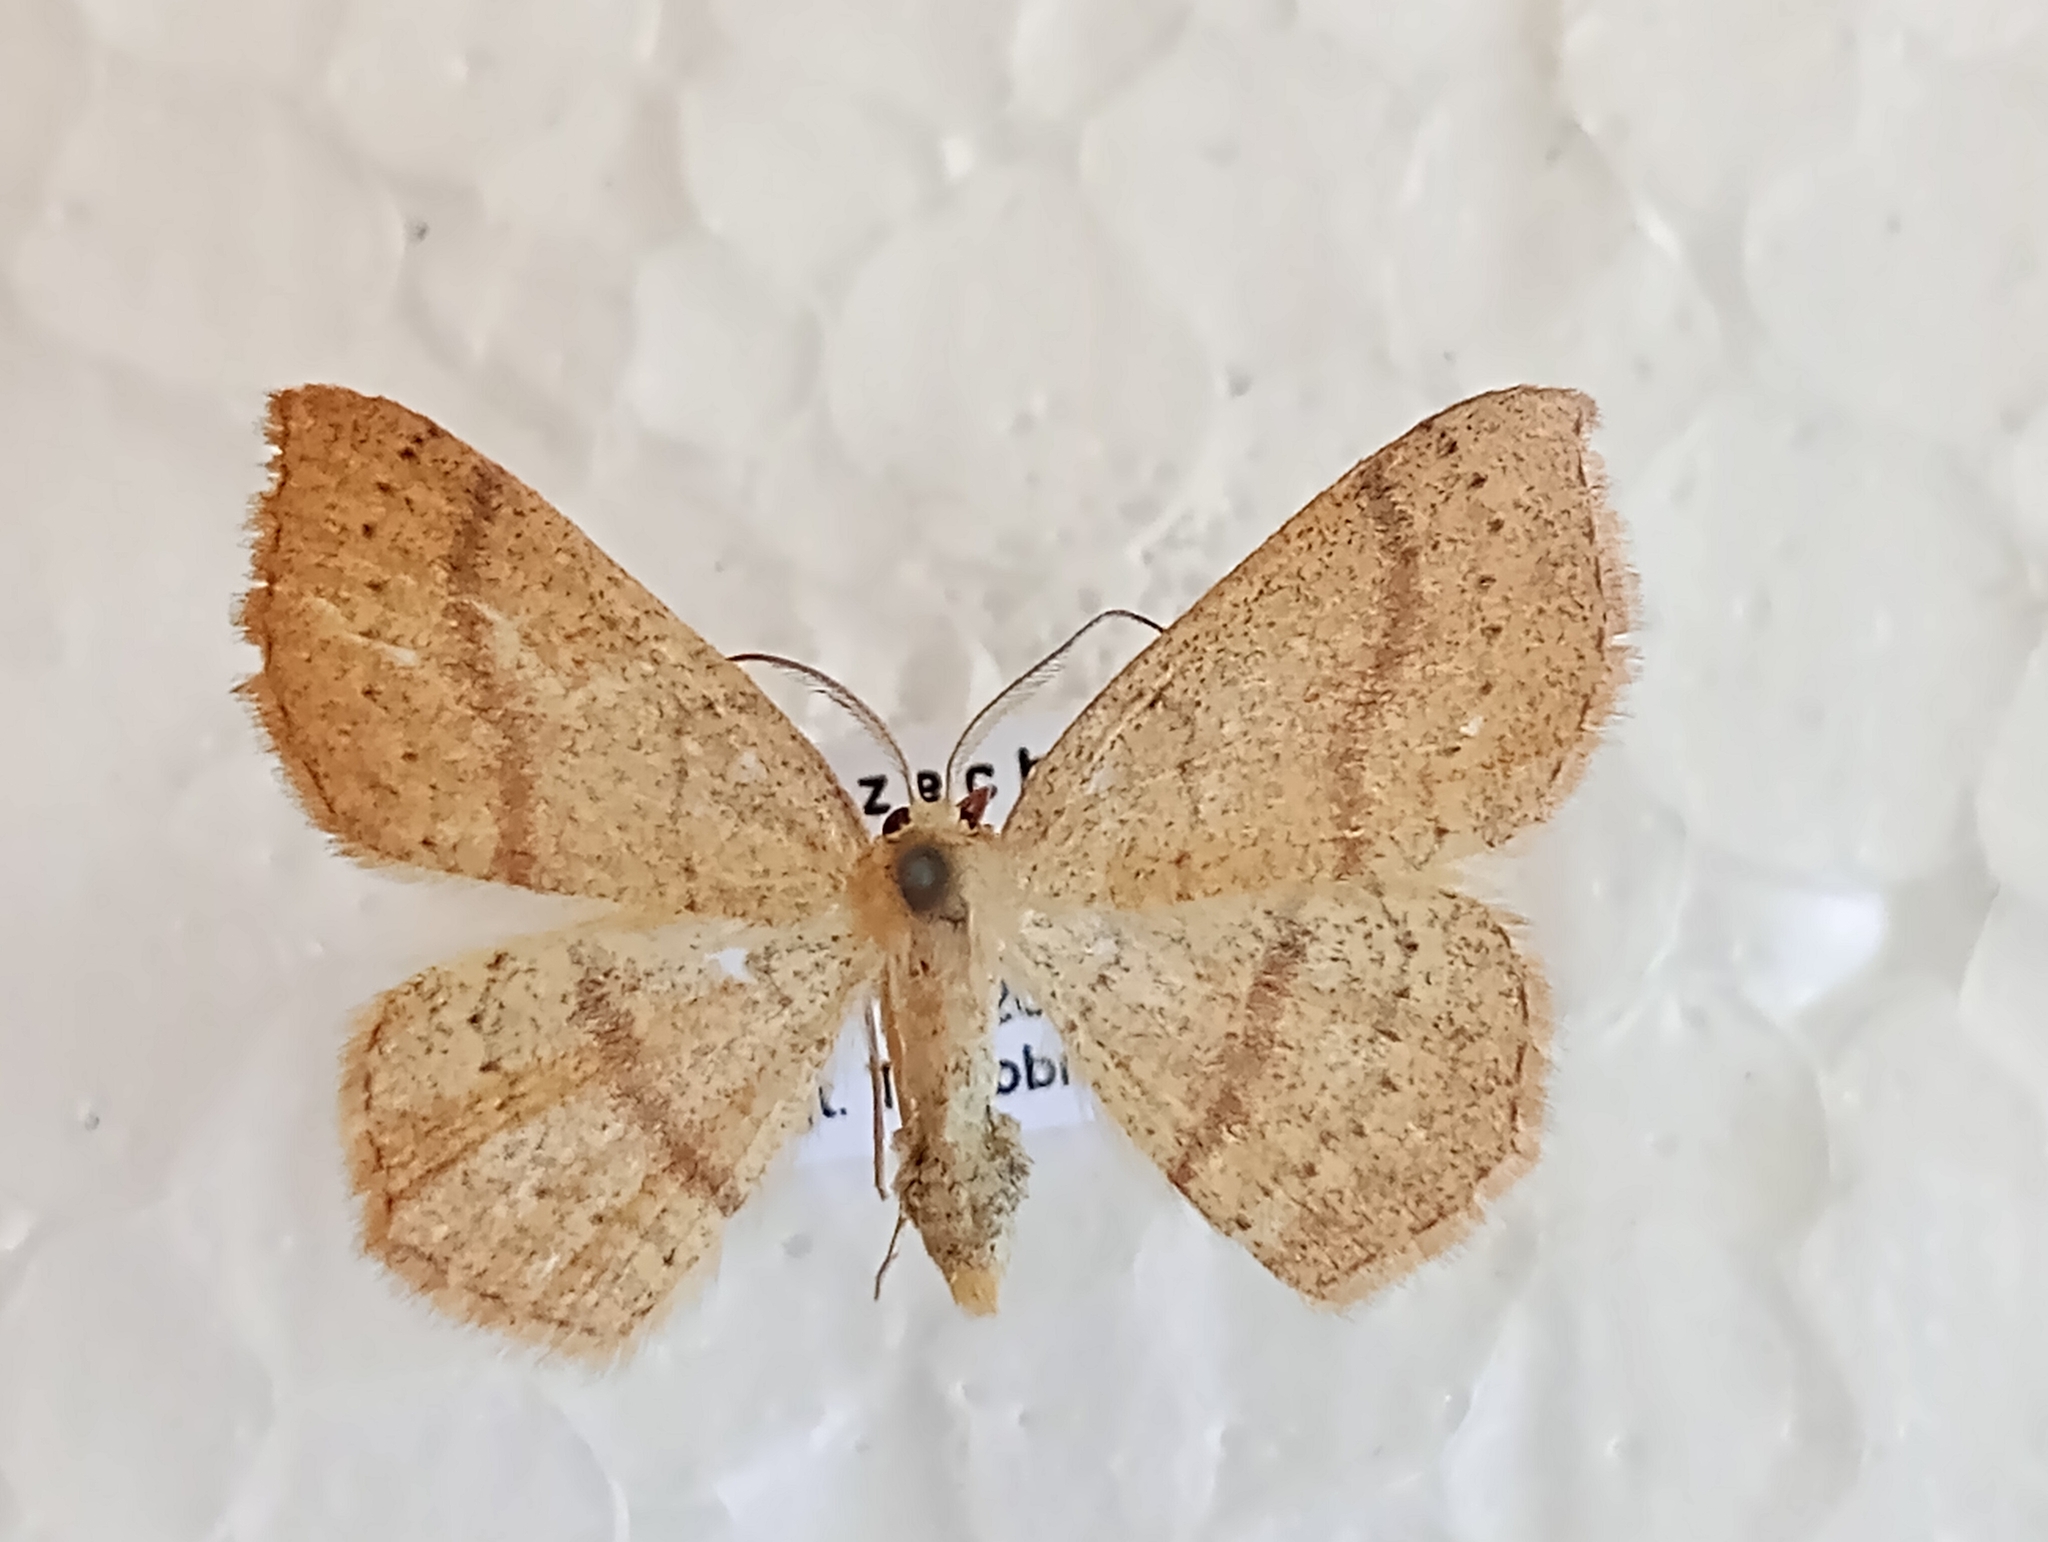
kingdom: Animalia
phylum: Arthropoda
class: Insecta
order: Lepidoptera
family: Geometridae
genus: Cyclophora
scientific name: Cyclophora linearia
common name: Clay triple-lines
